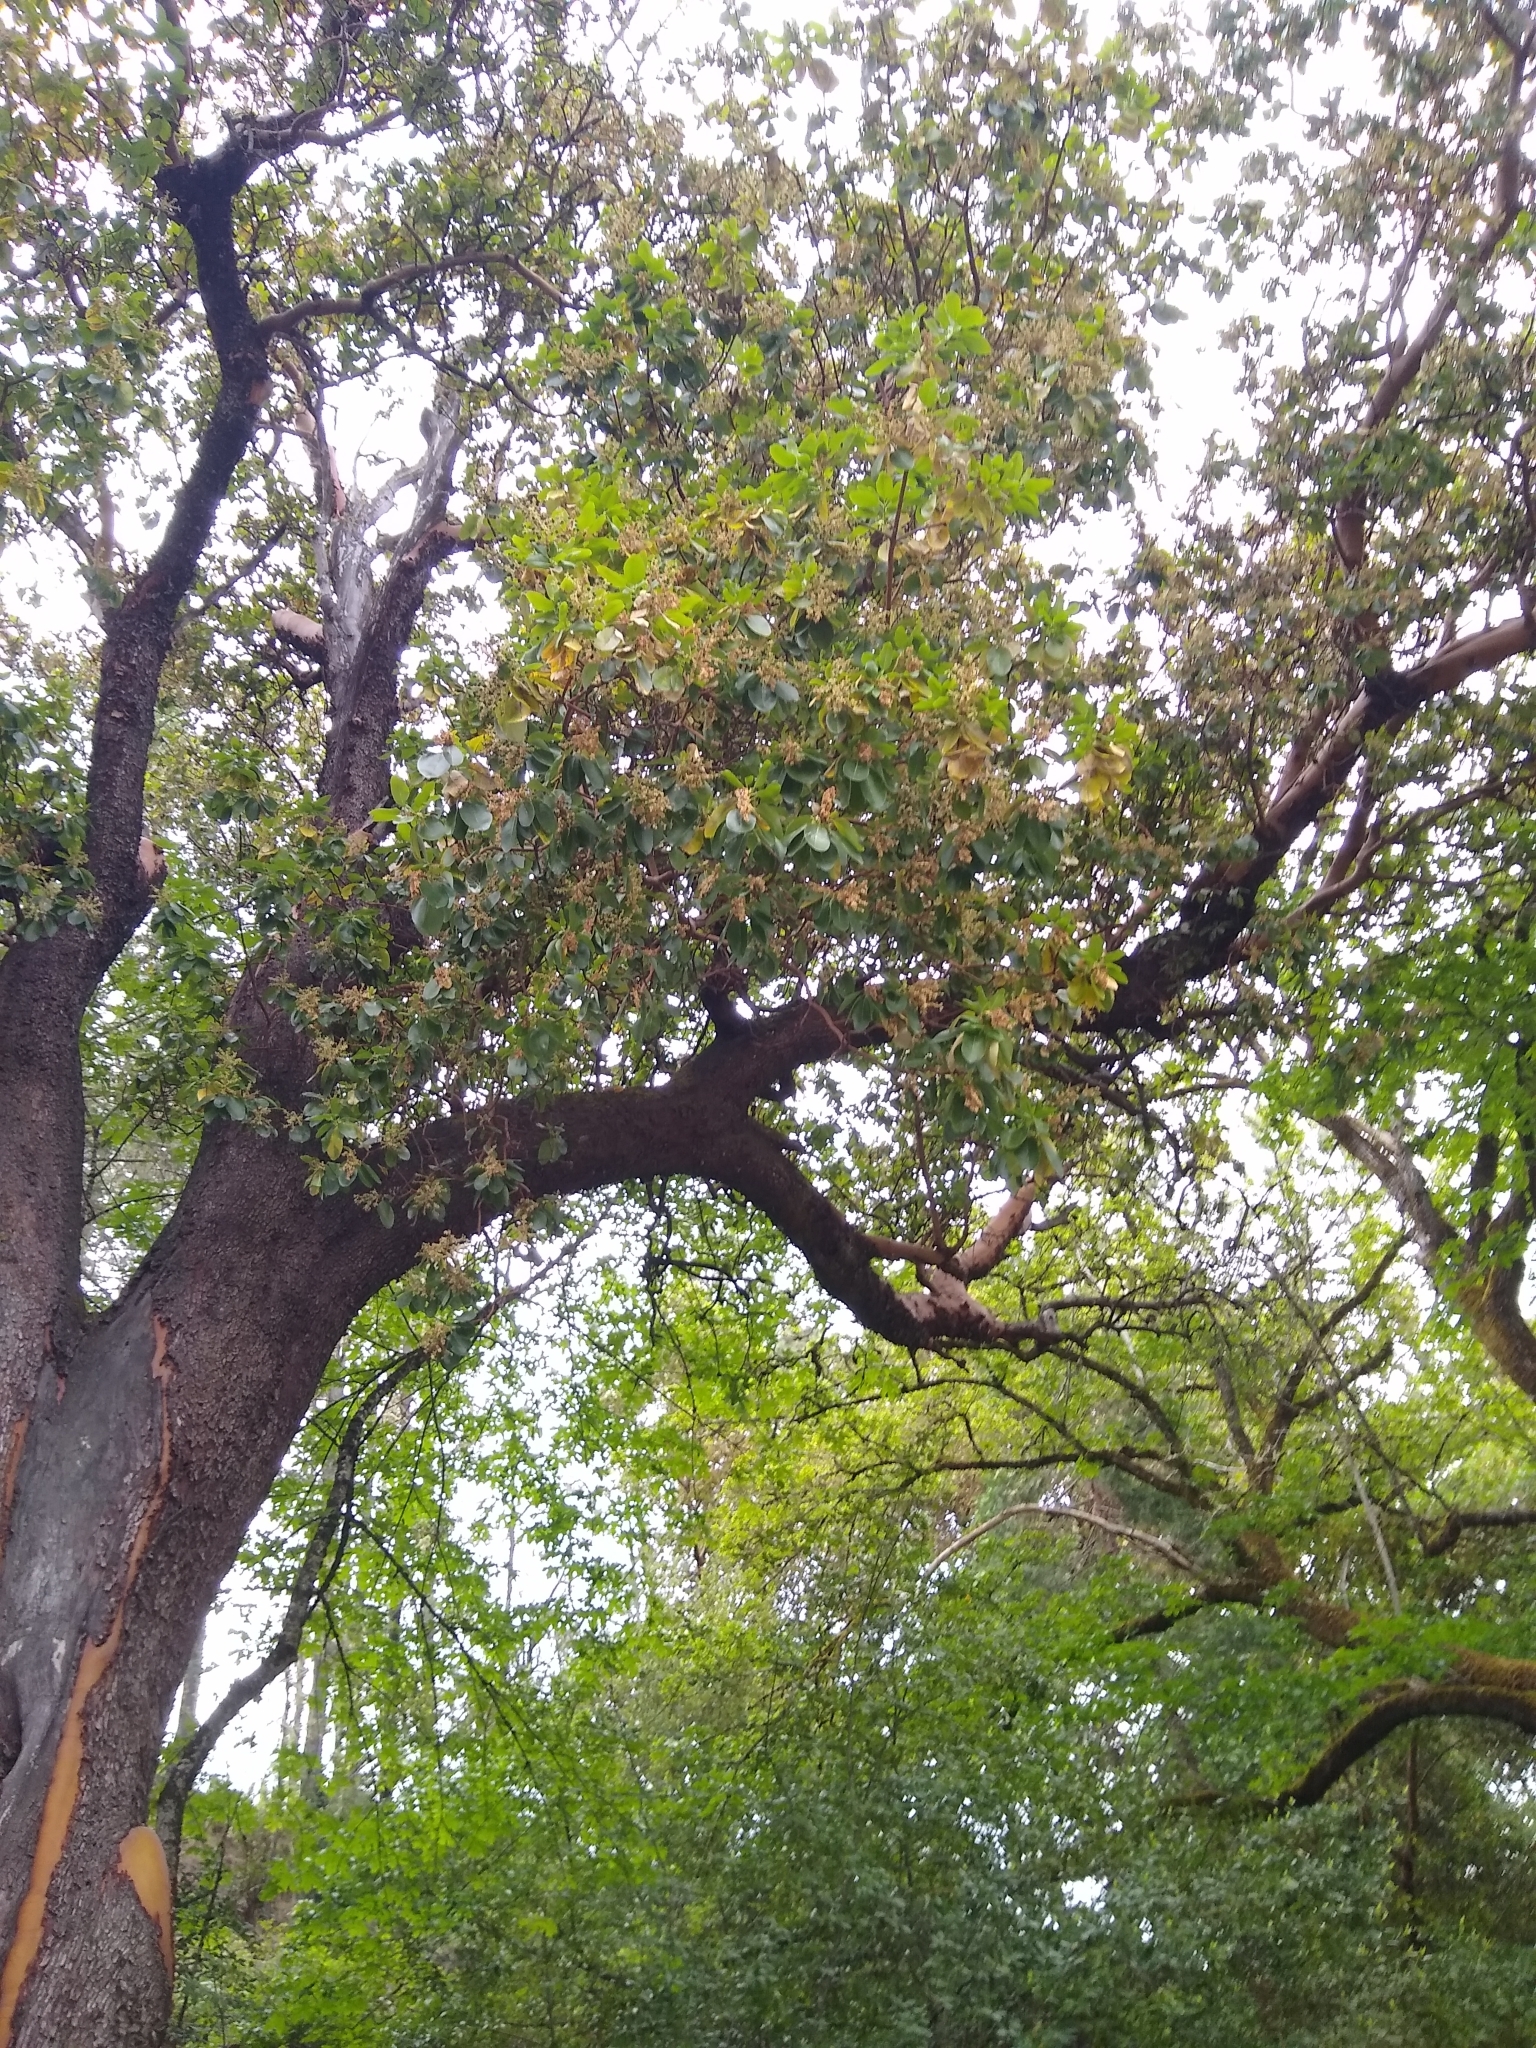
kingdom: Plantae
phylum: Tracheophyta
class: Magnoliopsida
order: Ericales
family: Ericaceae
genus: Arbutus
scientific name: Arbutus menziesii
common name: Pacific madrone
